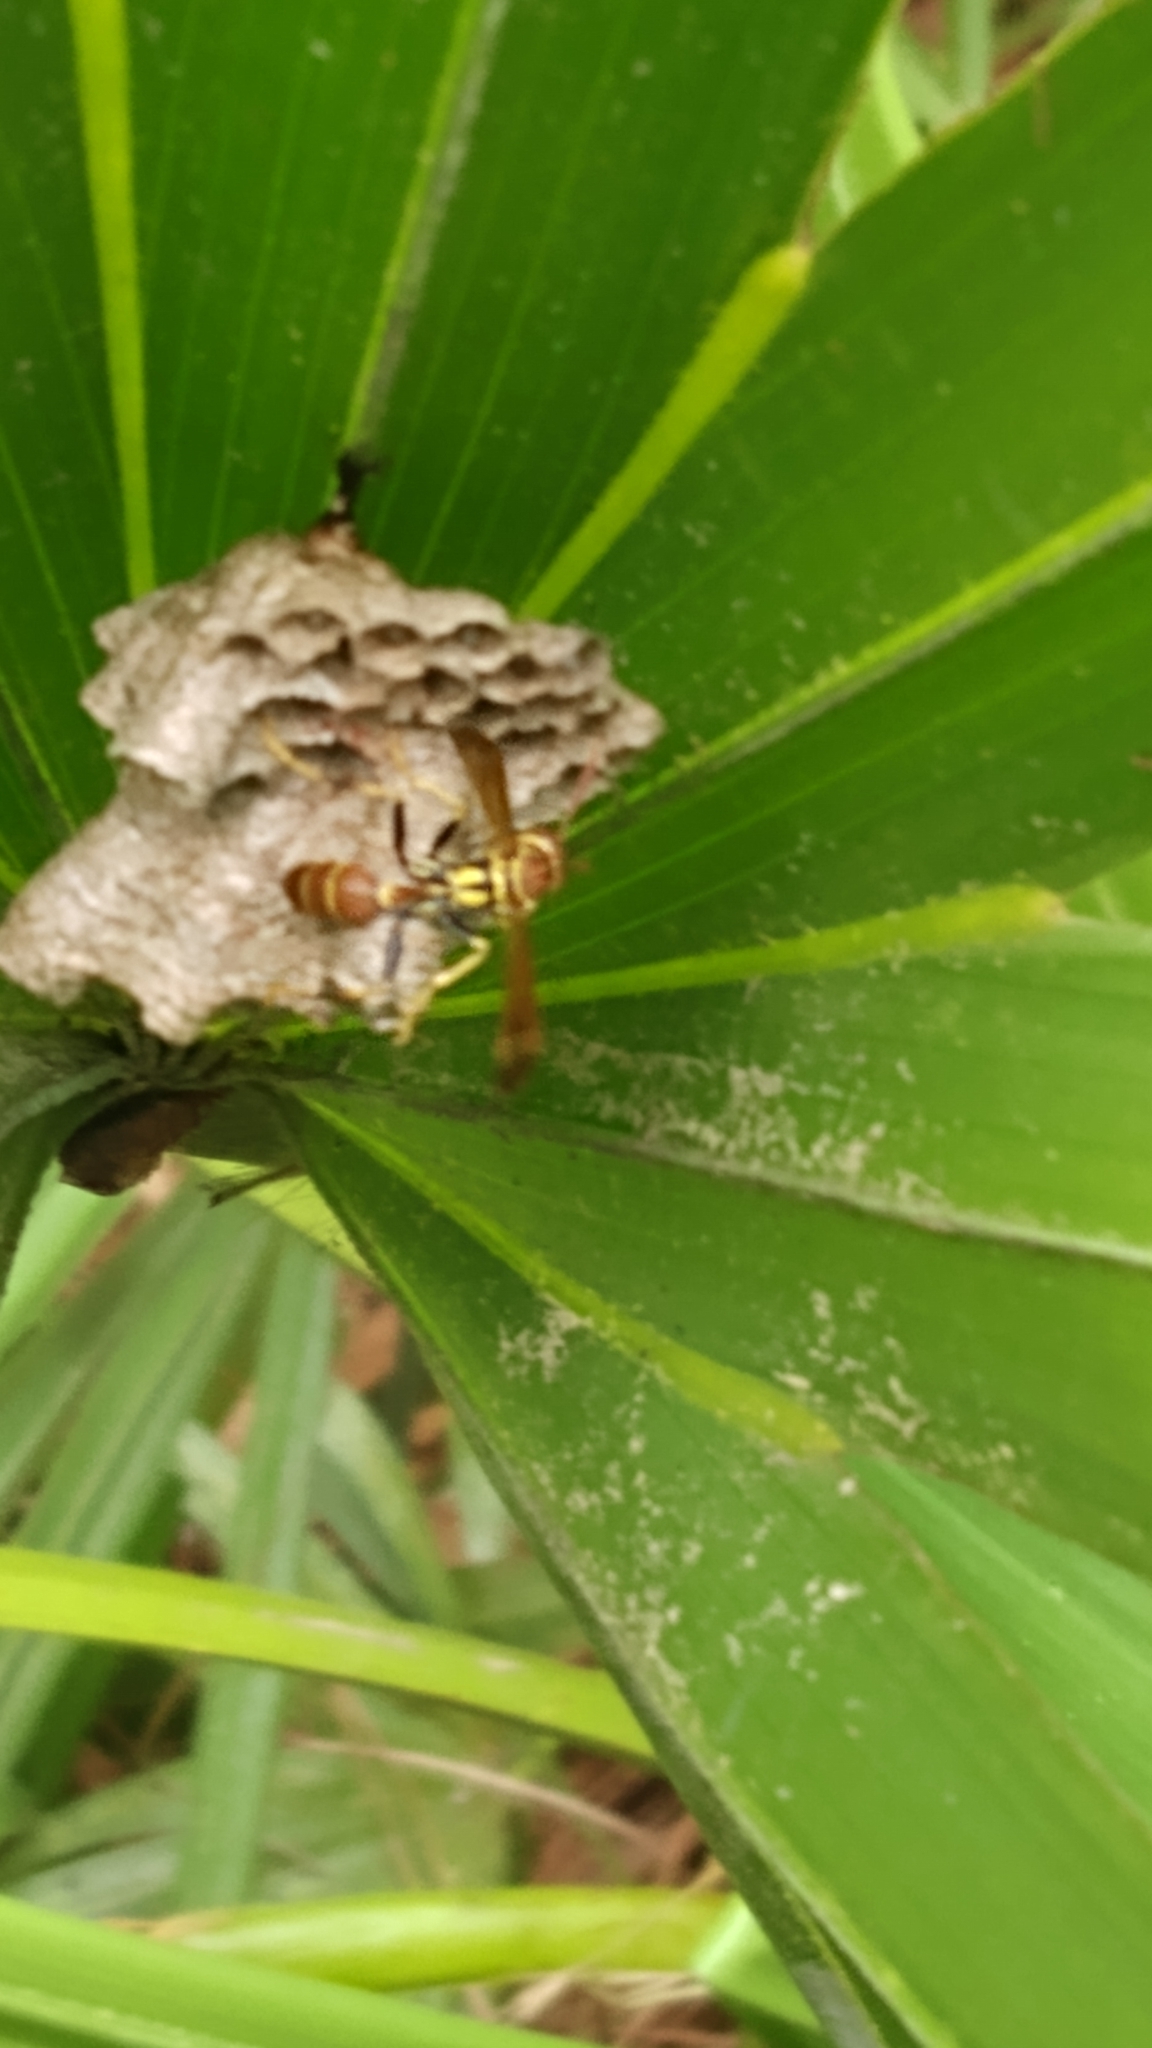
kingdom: Animalia
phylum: Arthropoda
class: Insecta
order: Hymenoptera
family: Vespidae
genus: Mischocyttarus
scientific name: Mischocyttarus mexicanus
